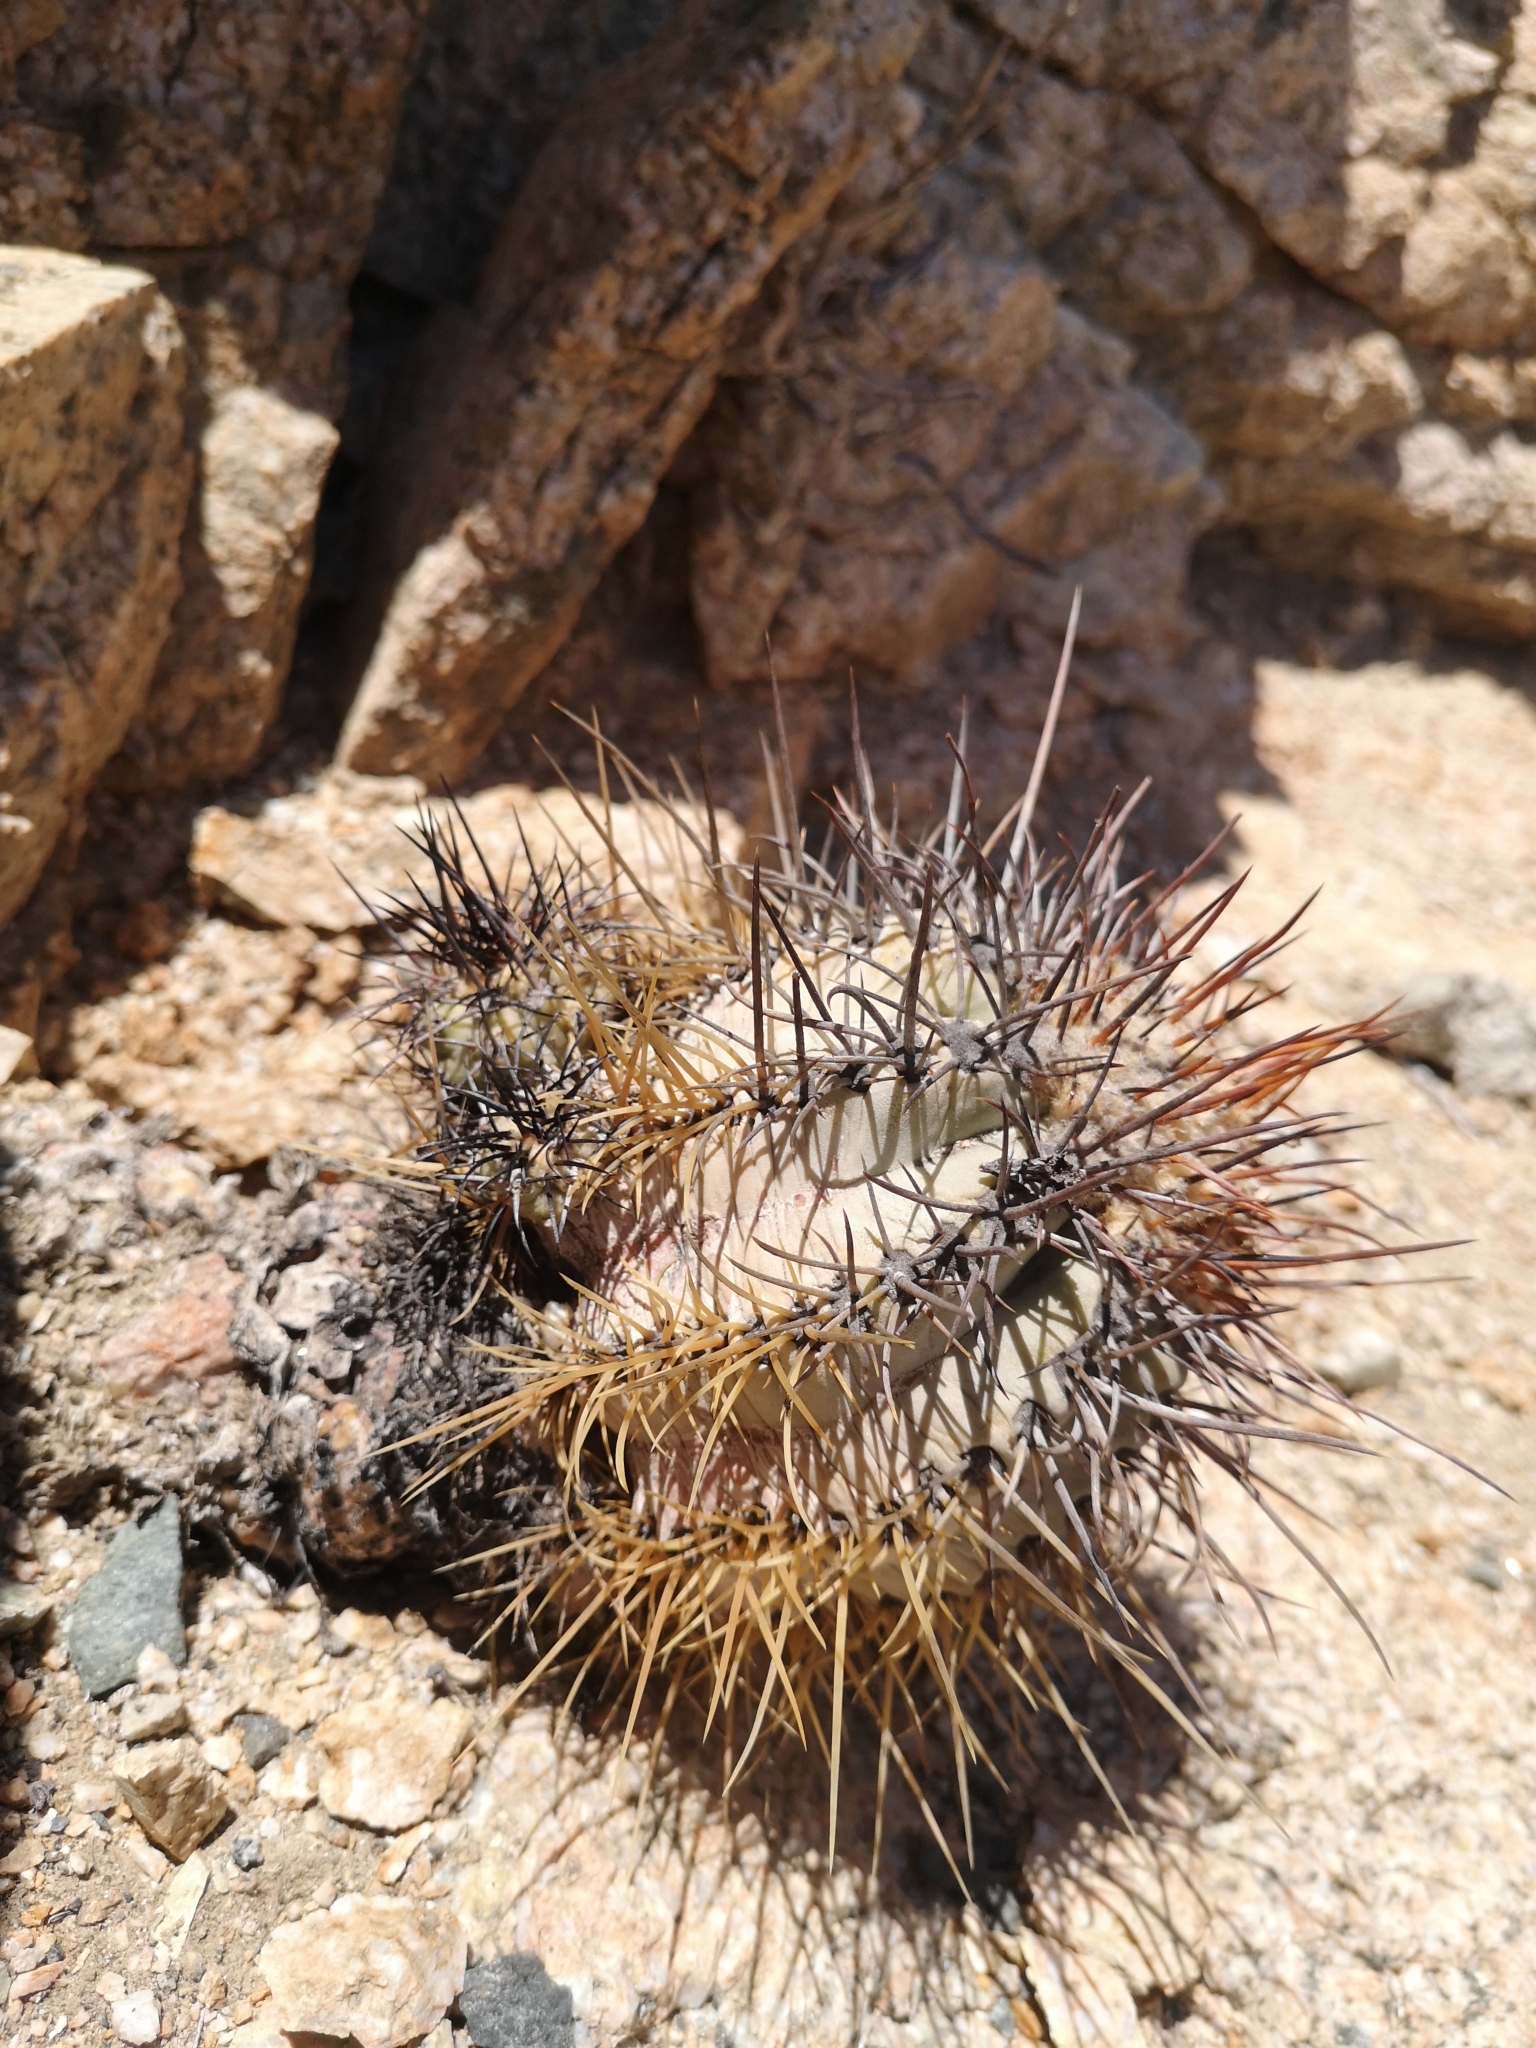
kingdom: Plantae
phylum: Tracheophyta
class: Magnoliopsida
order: Caryophyllales
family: Cactaceae
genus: Copiapoa
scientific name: Copiapoa boliviana
